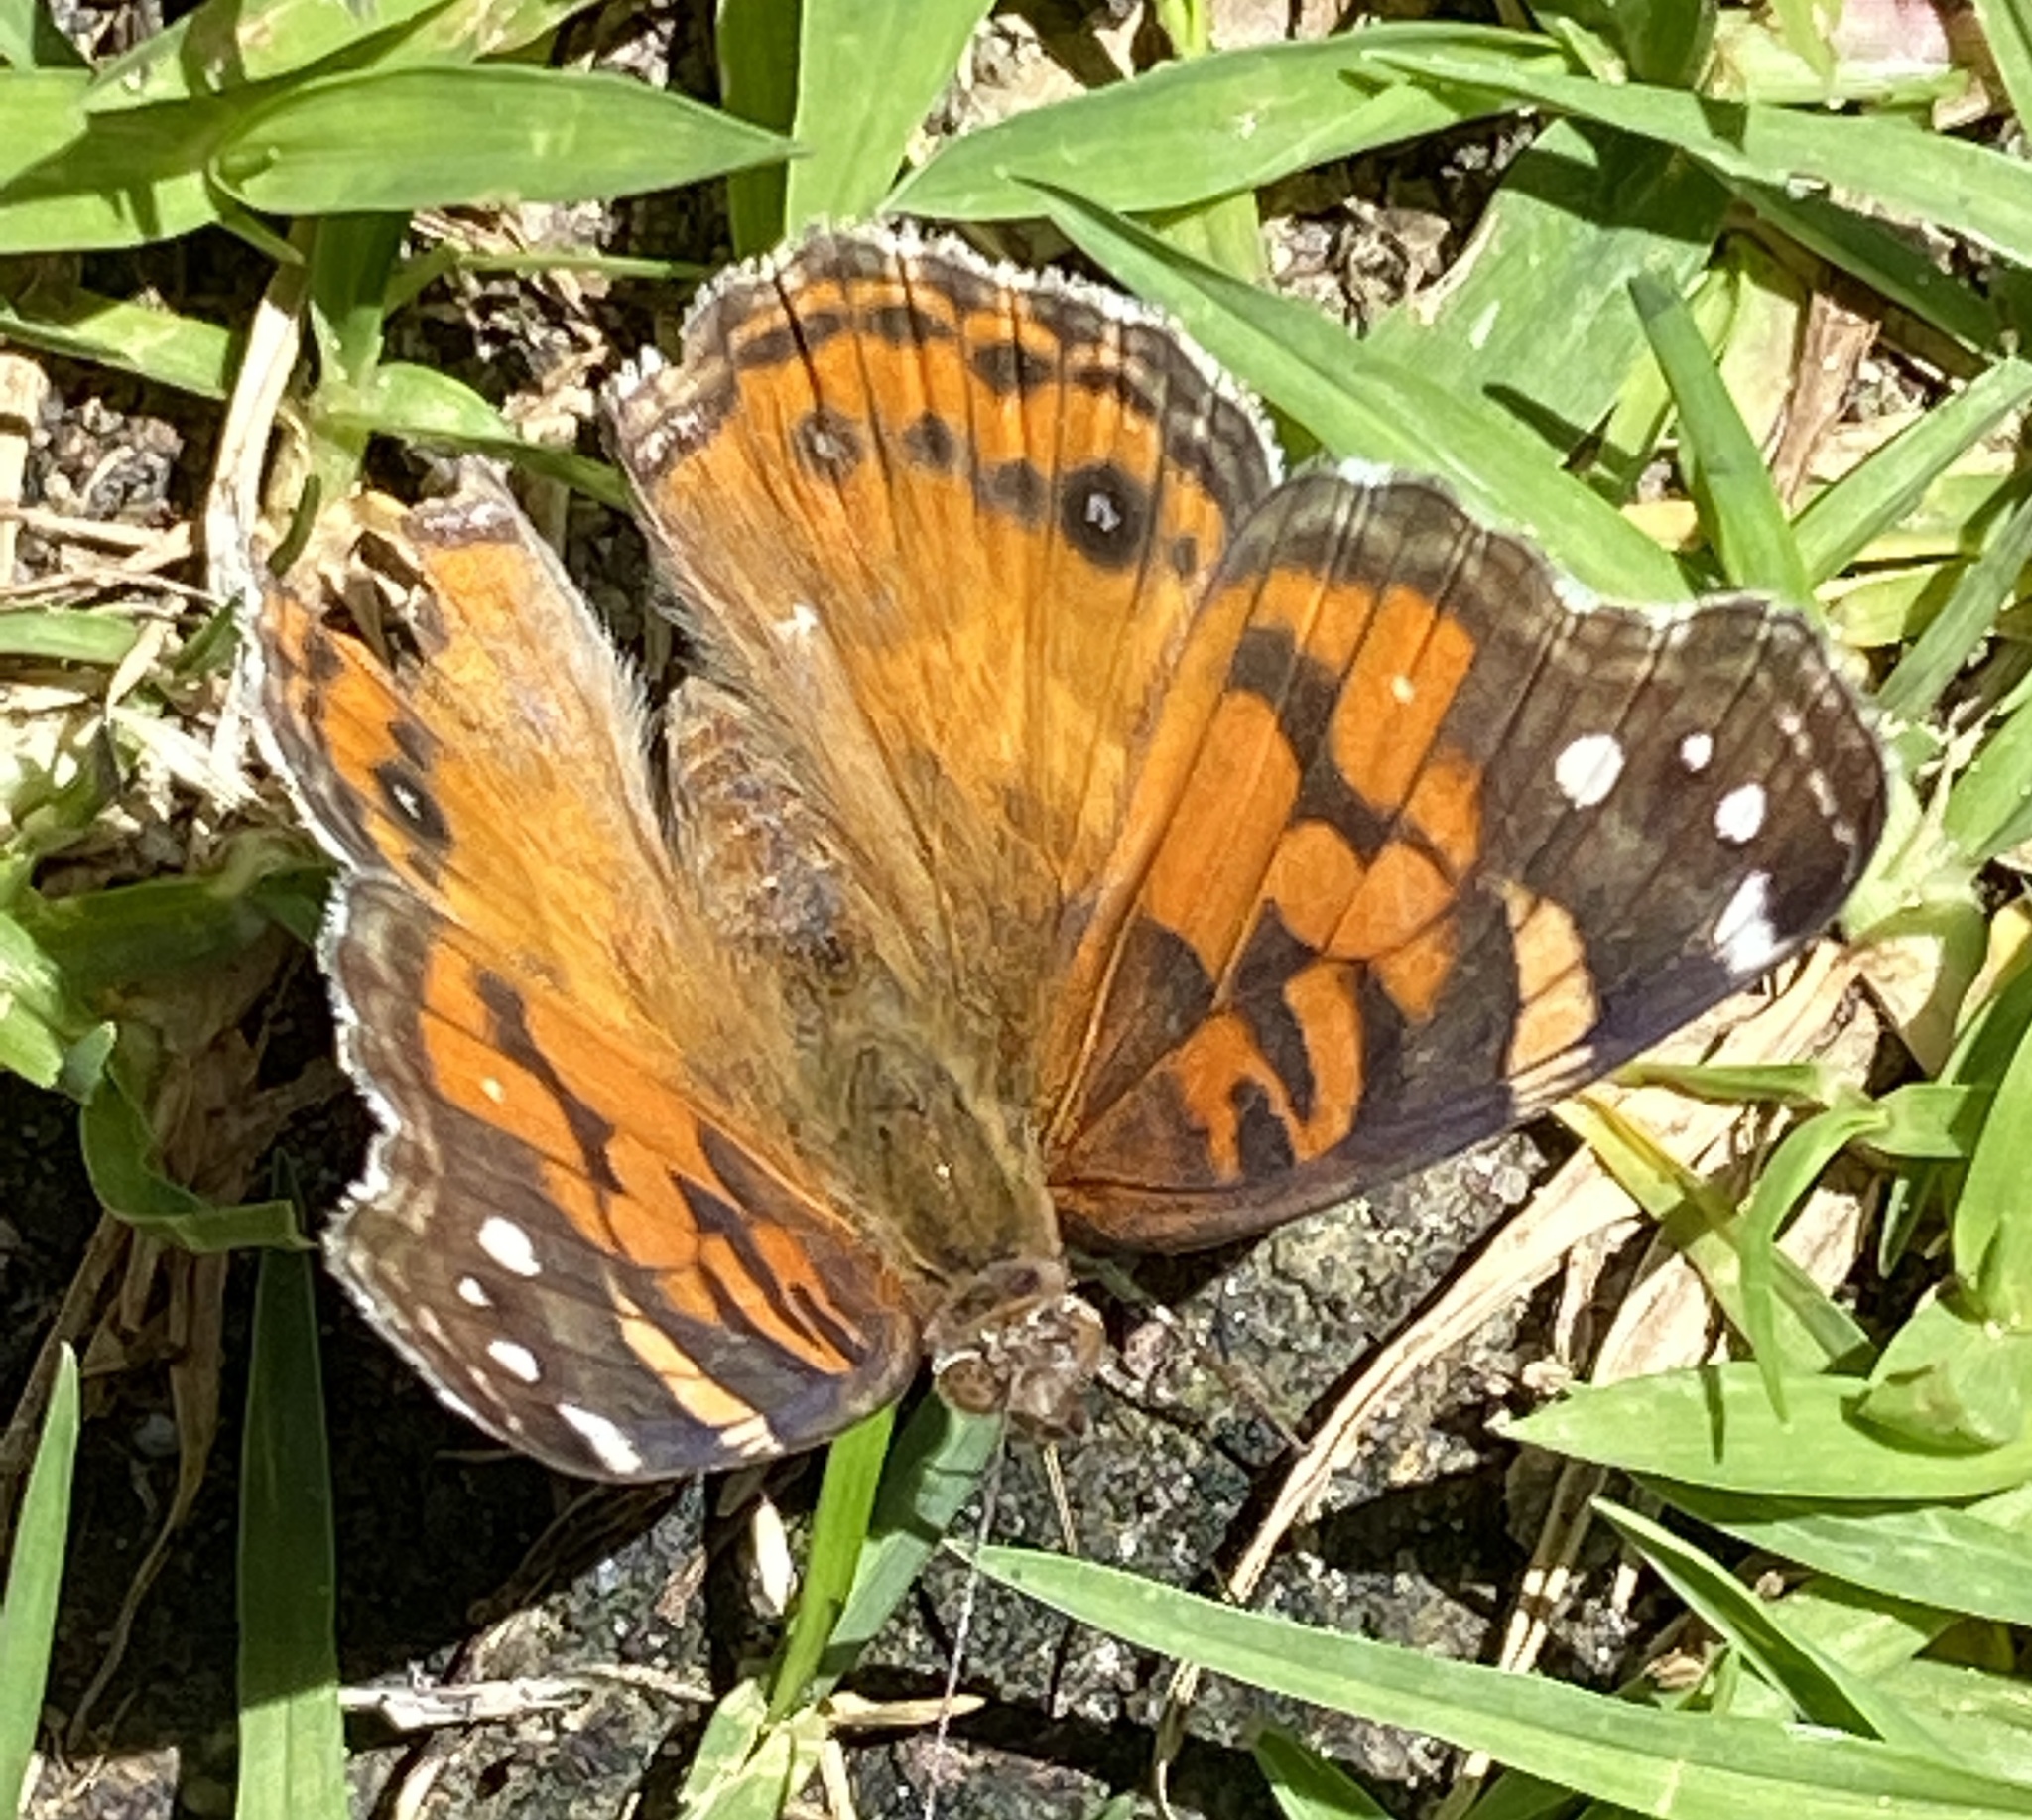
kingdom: Animalia
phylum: Arthropoda
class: Insecta
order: Lepidoptera
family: Nymphalidae
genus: Vanessa
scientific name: Vanessa virginiensis
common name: American lady
